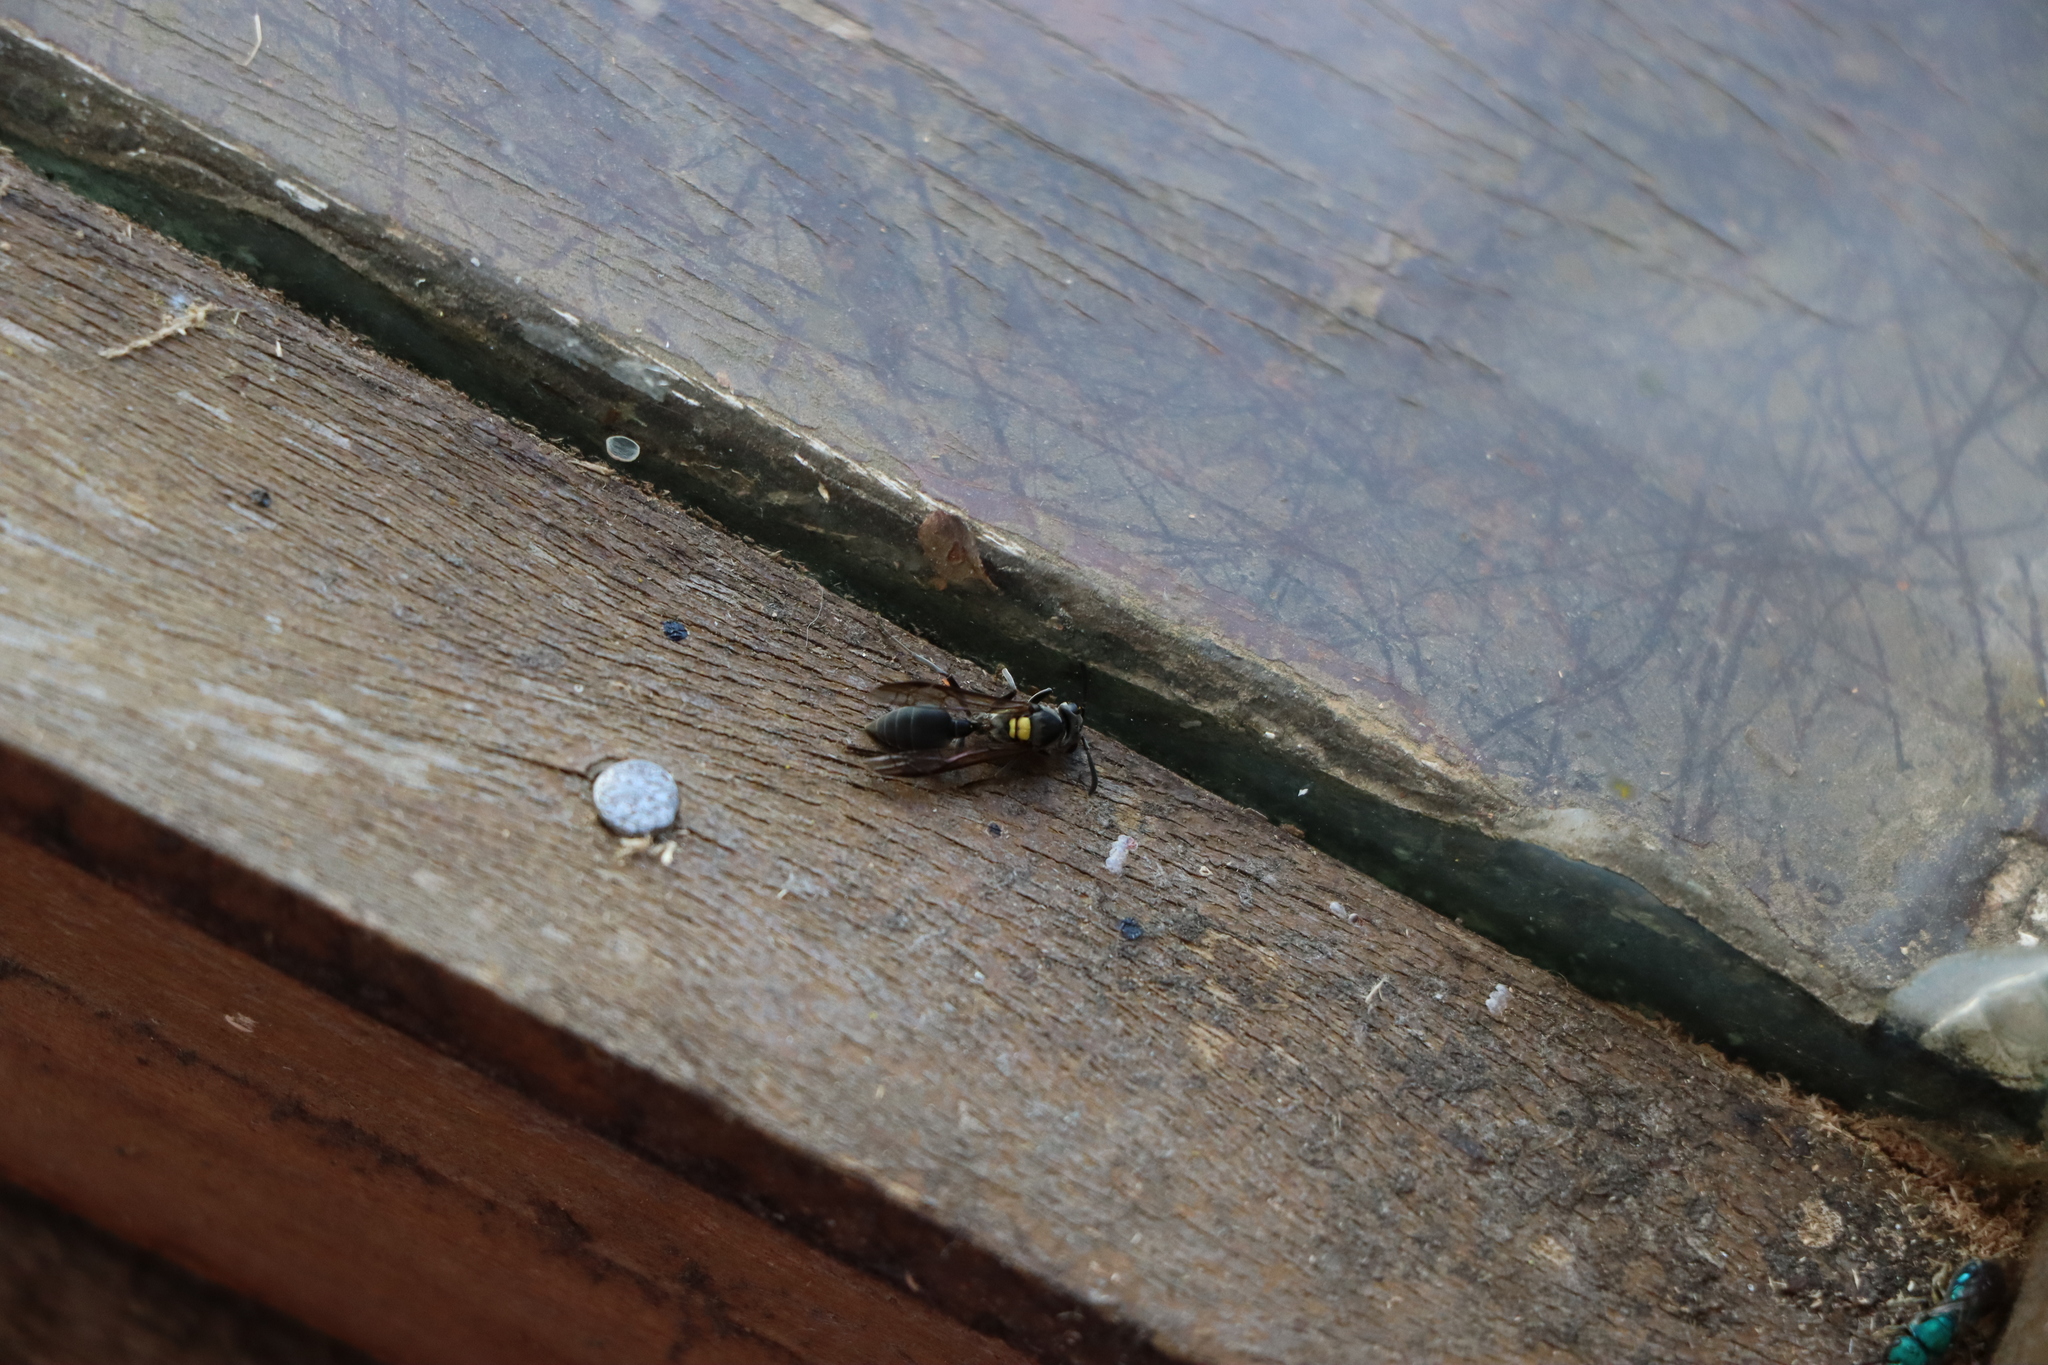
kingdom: Animalia
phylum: Arthropoda
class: Insecta
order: Hymenoptera
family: Eumenidae
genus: Polybia
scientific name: Polybia scutellaris
